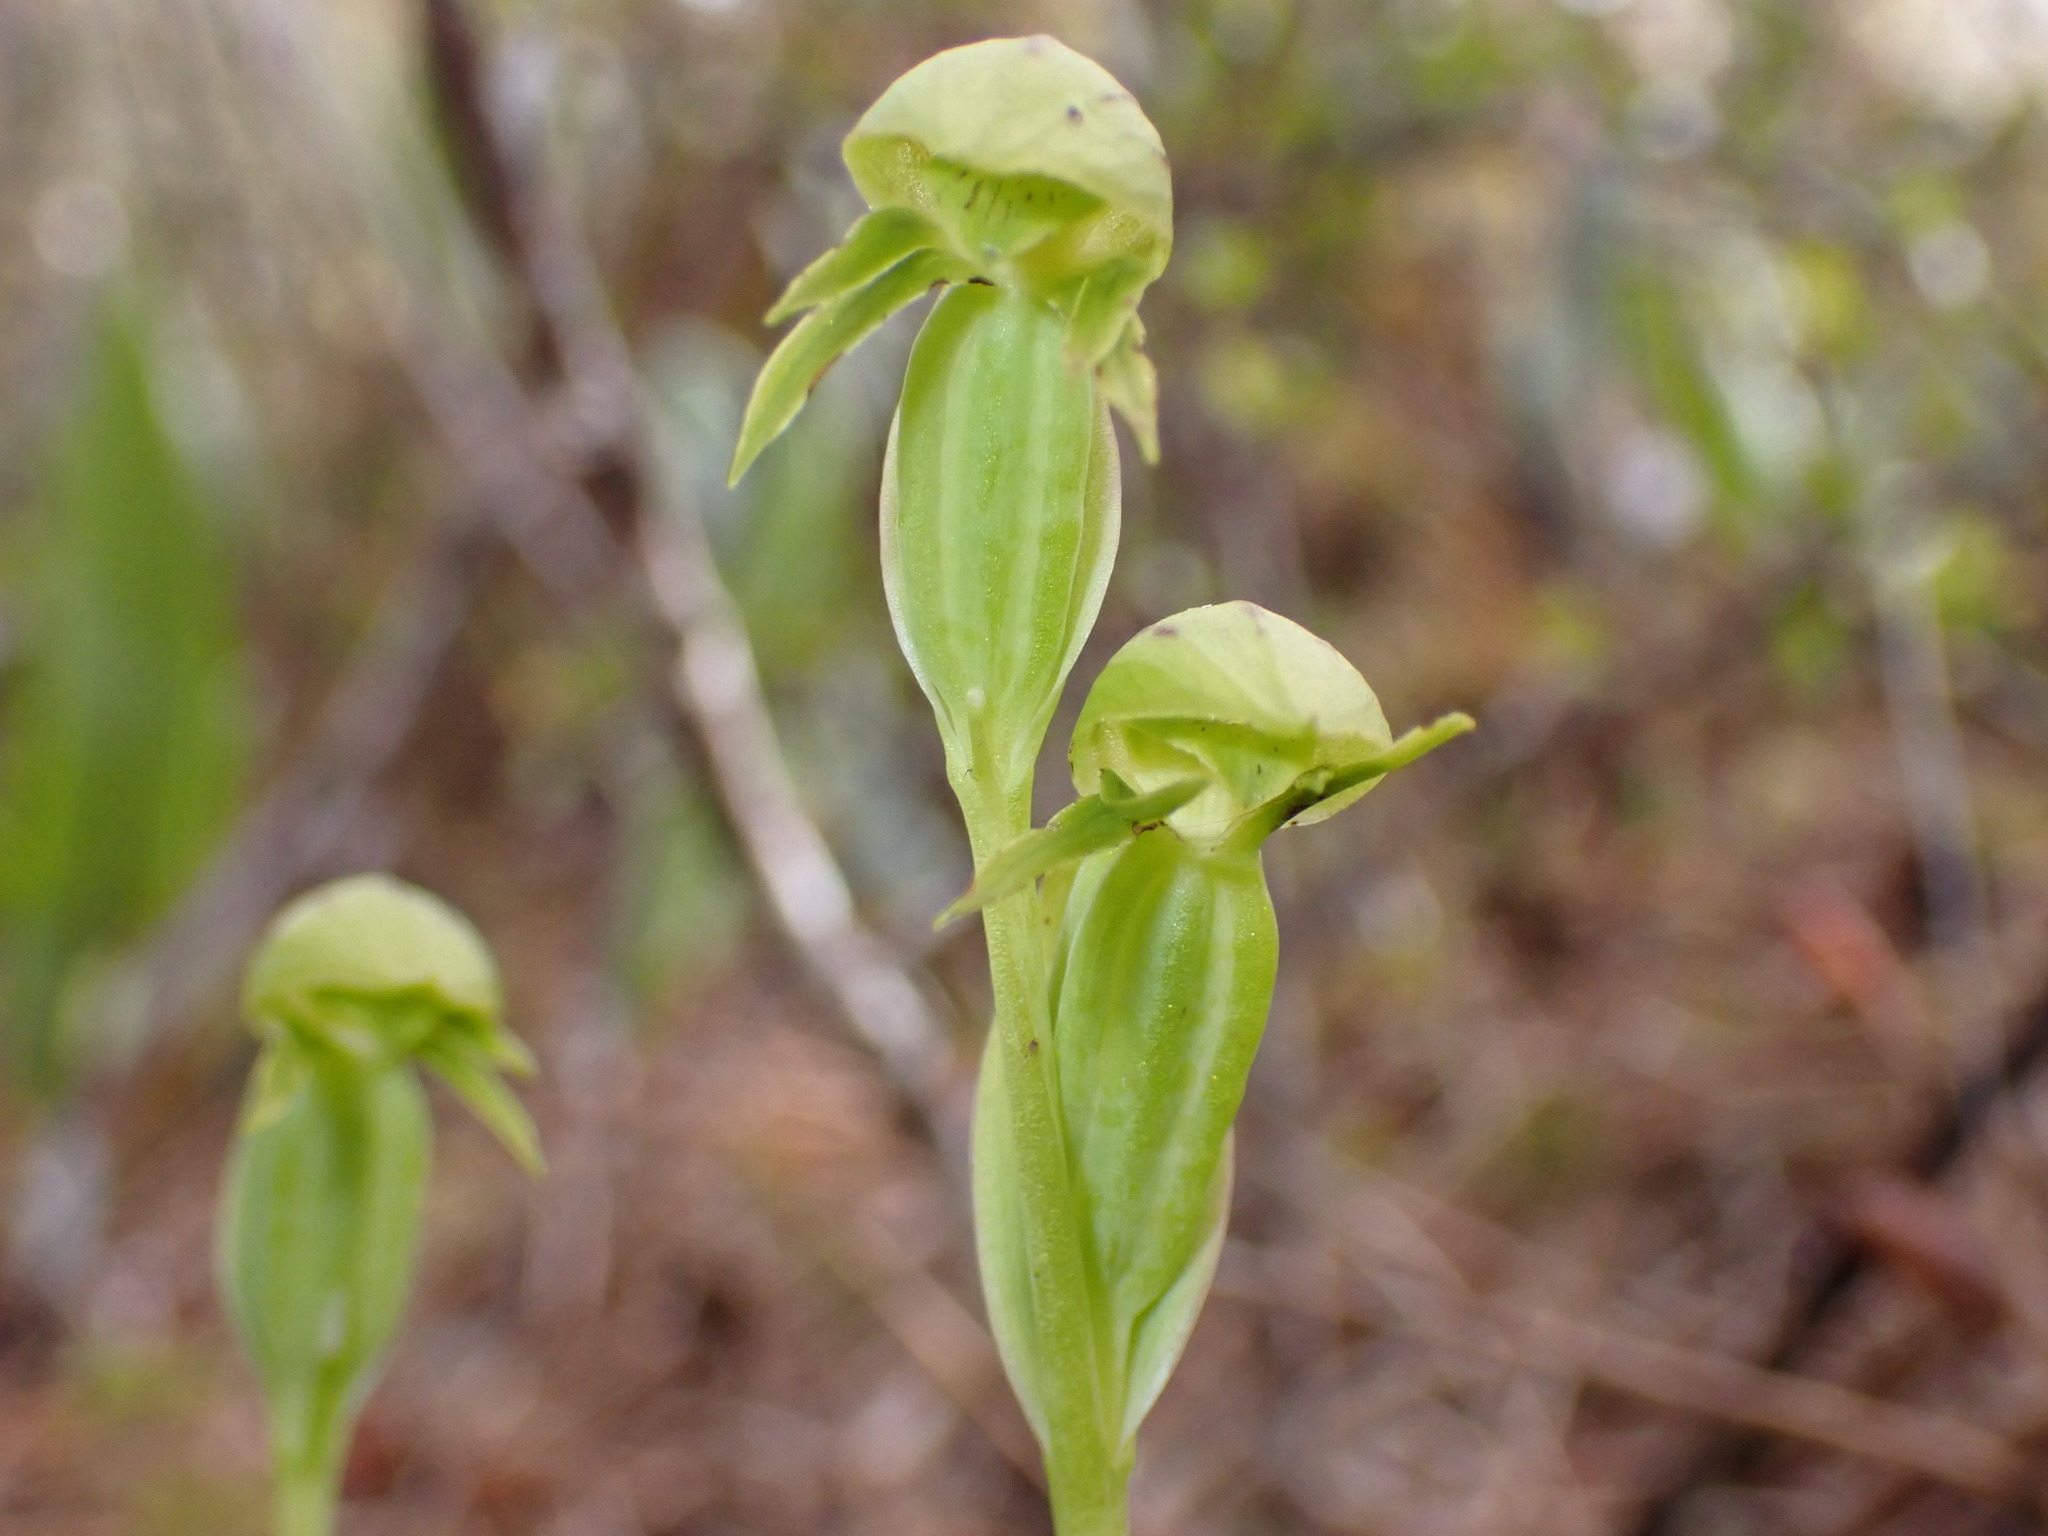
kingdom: Plantae
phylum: Tracheophyta
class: Liliopsida
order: Asparagales
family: Orchidaceae
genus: Waireia
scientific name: Waireia stenopetala
